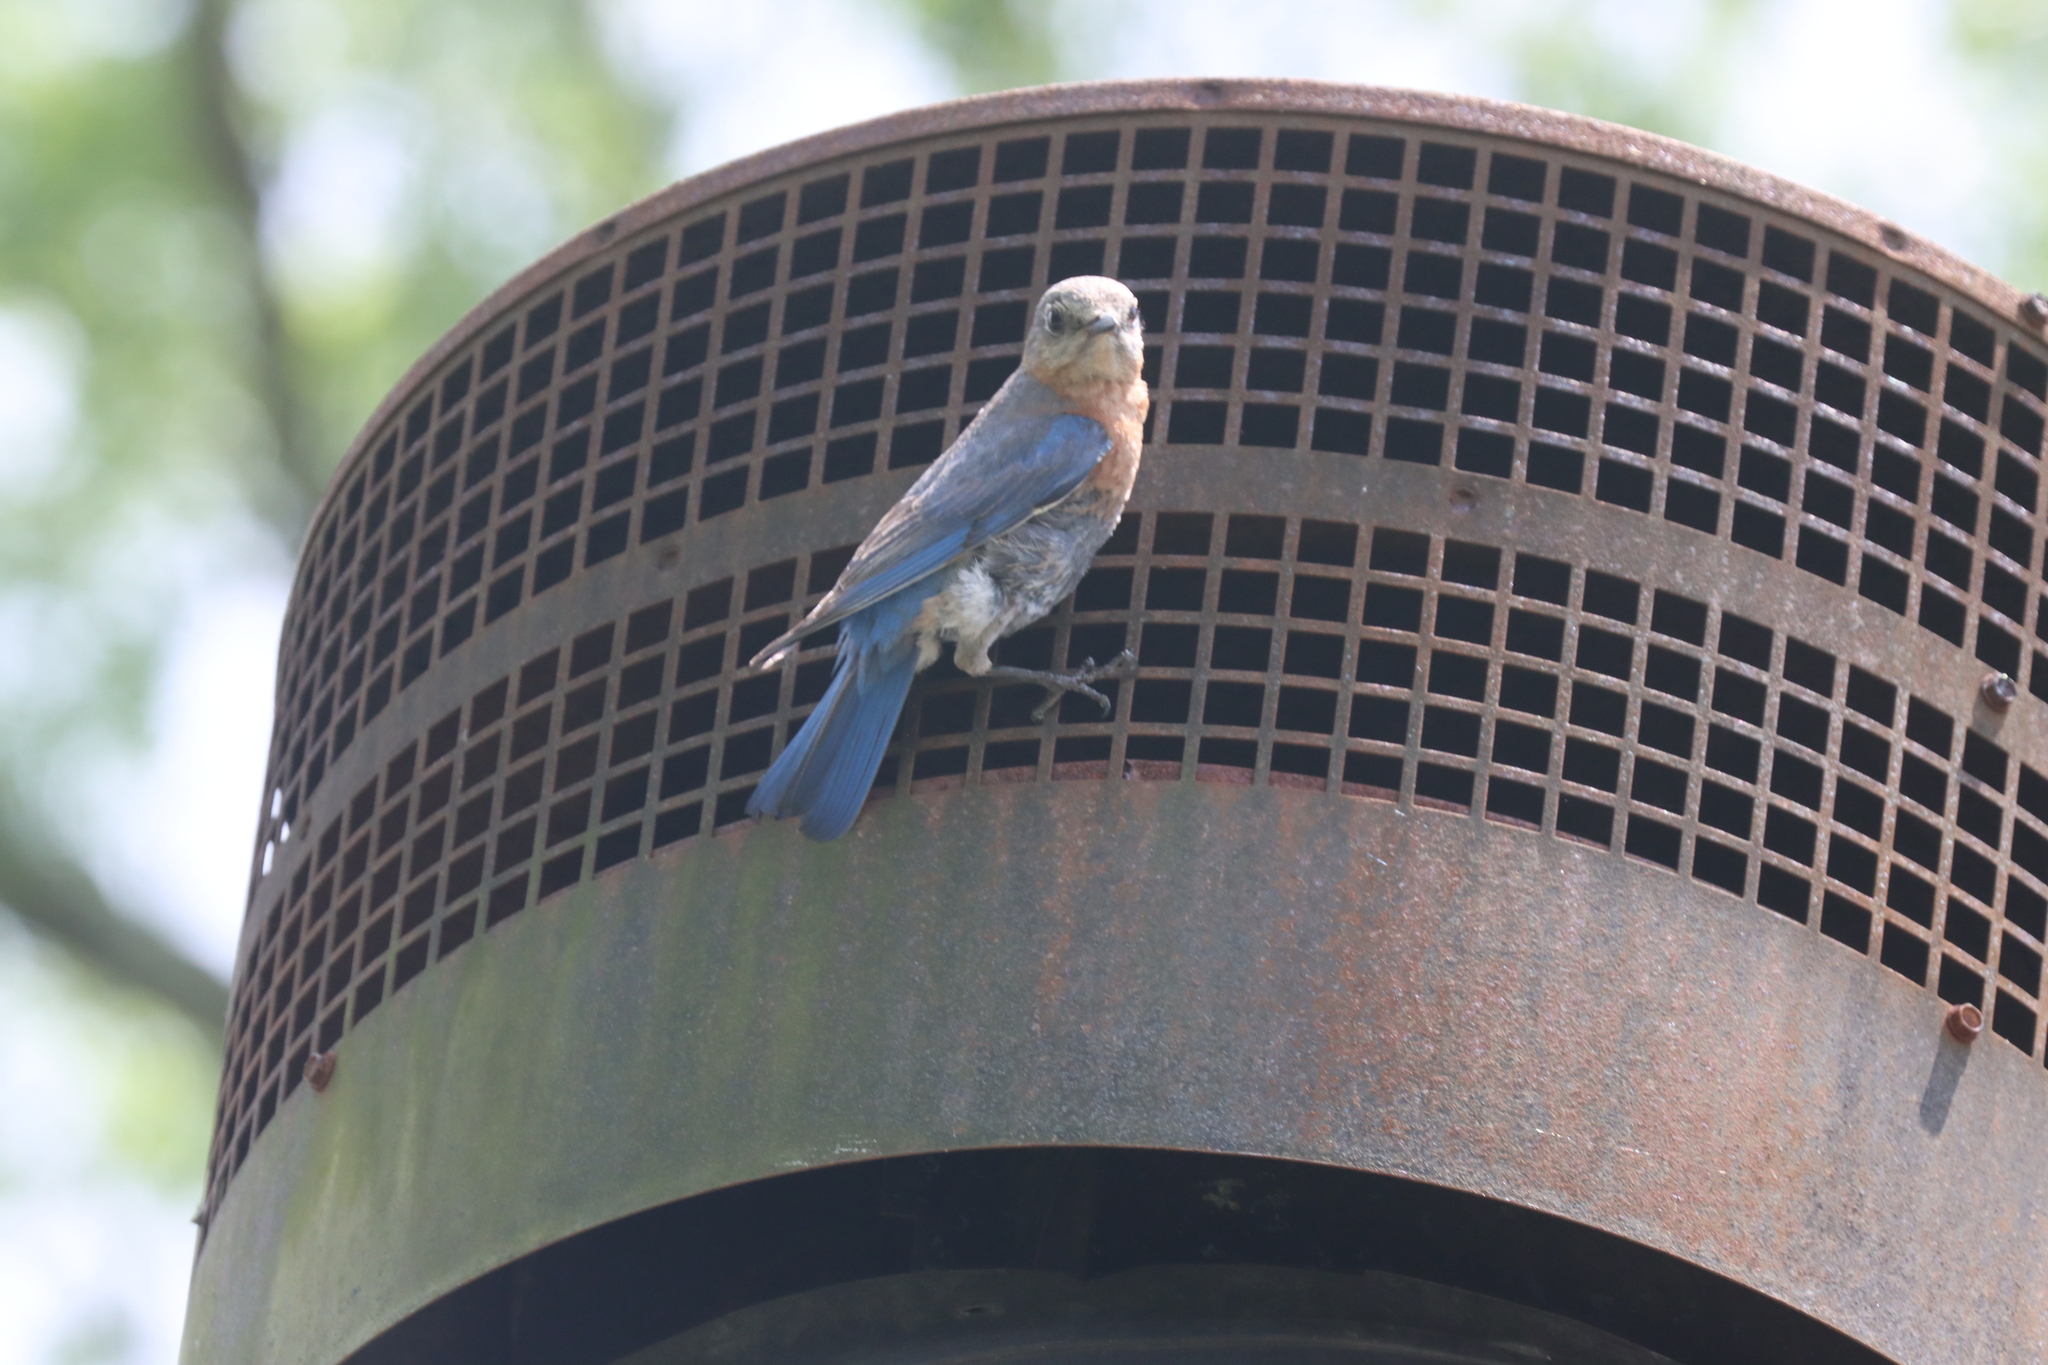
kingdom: Animalia
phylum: Chordata
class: Aves
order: Passeriformes
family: Turdidae
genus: Sialia
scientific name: Sialia sialis
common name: Eastern bluebird
